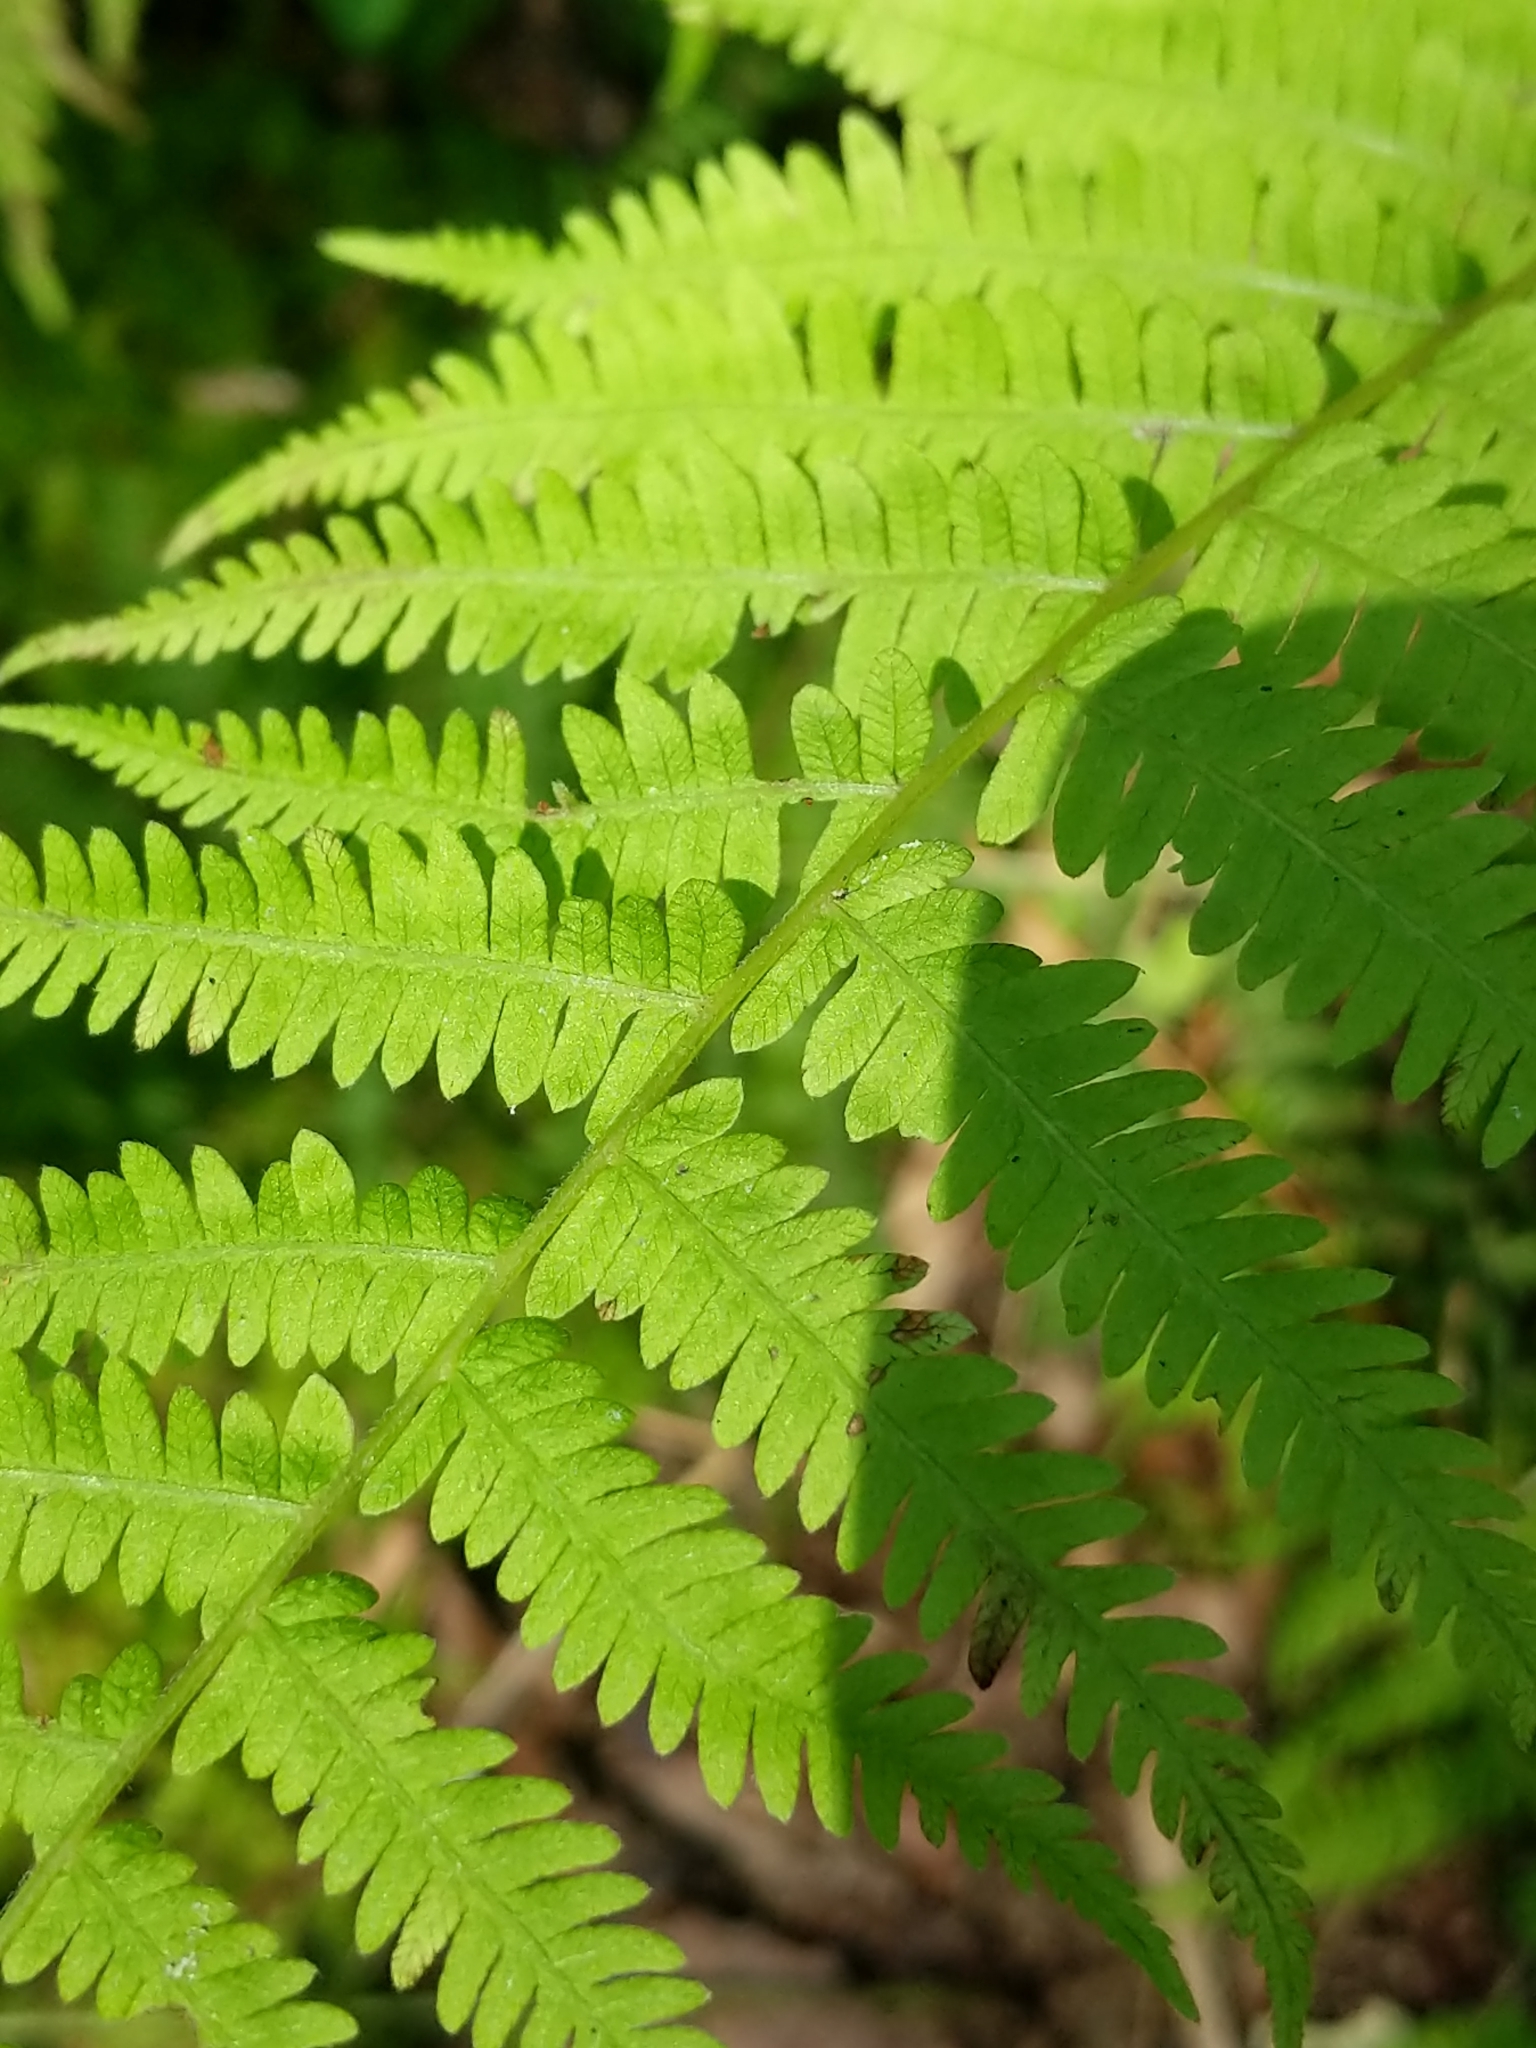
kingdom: Plantae
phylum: Tracheophyta
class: Polypodiopsida
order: Polypodiales
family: Thelypteridaceae
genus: Amauropelta
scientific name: Amauropelta noveboracensis
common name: New york fern
